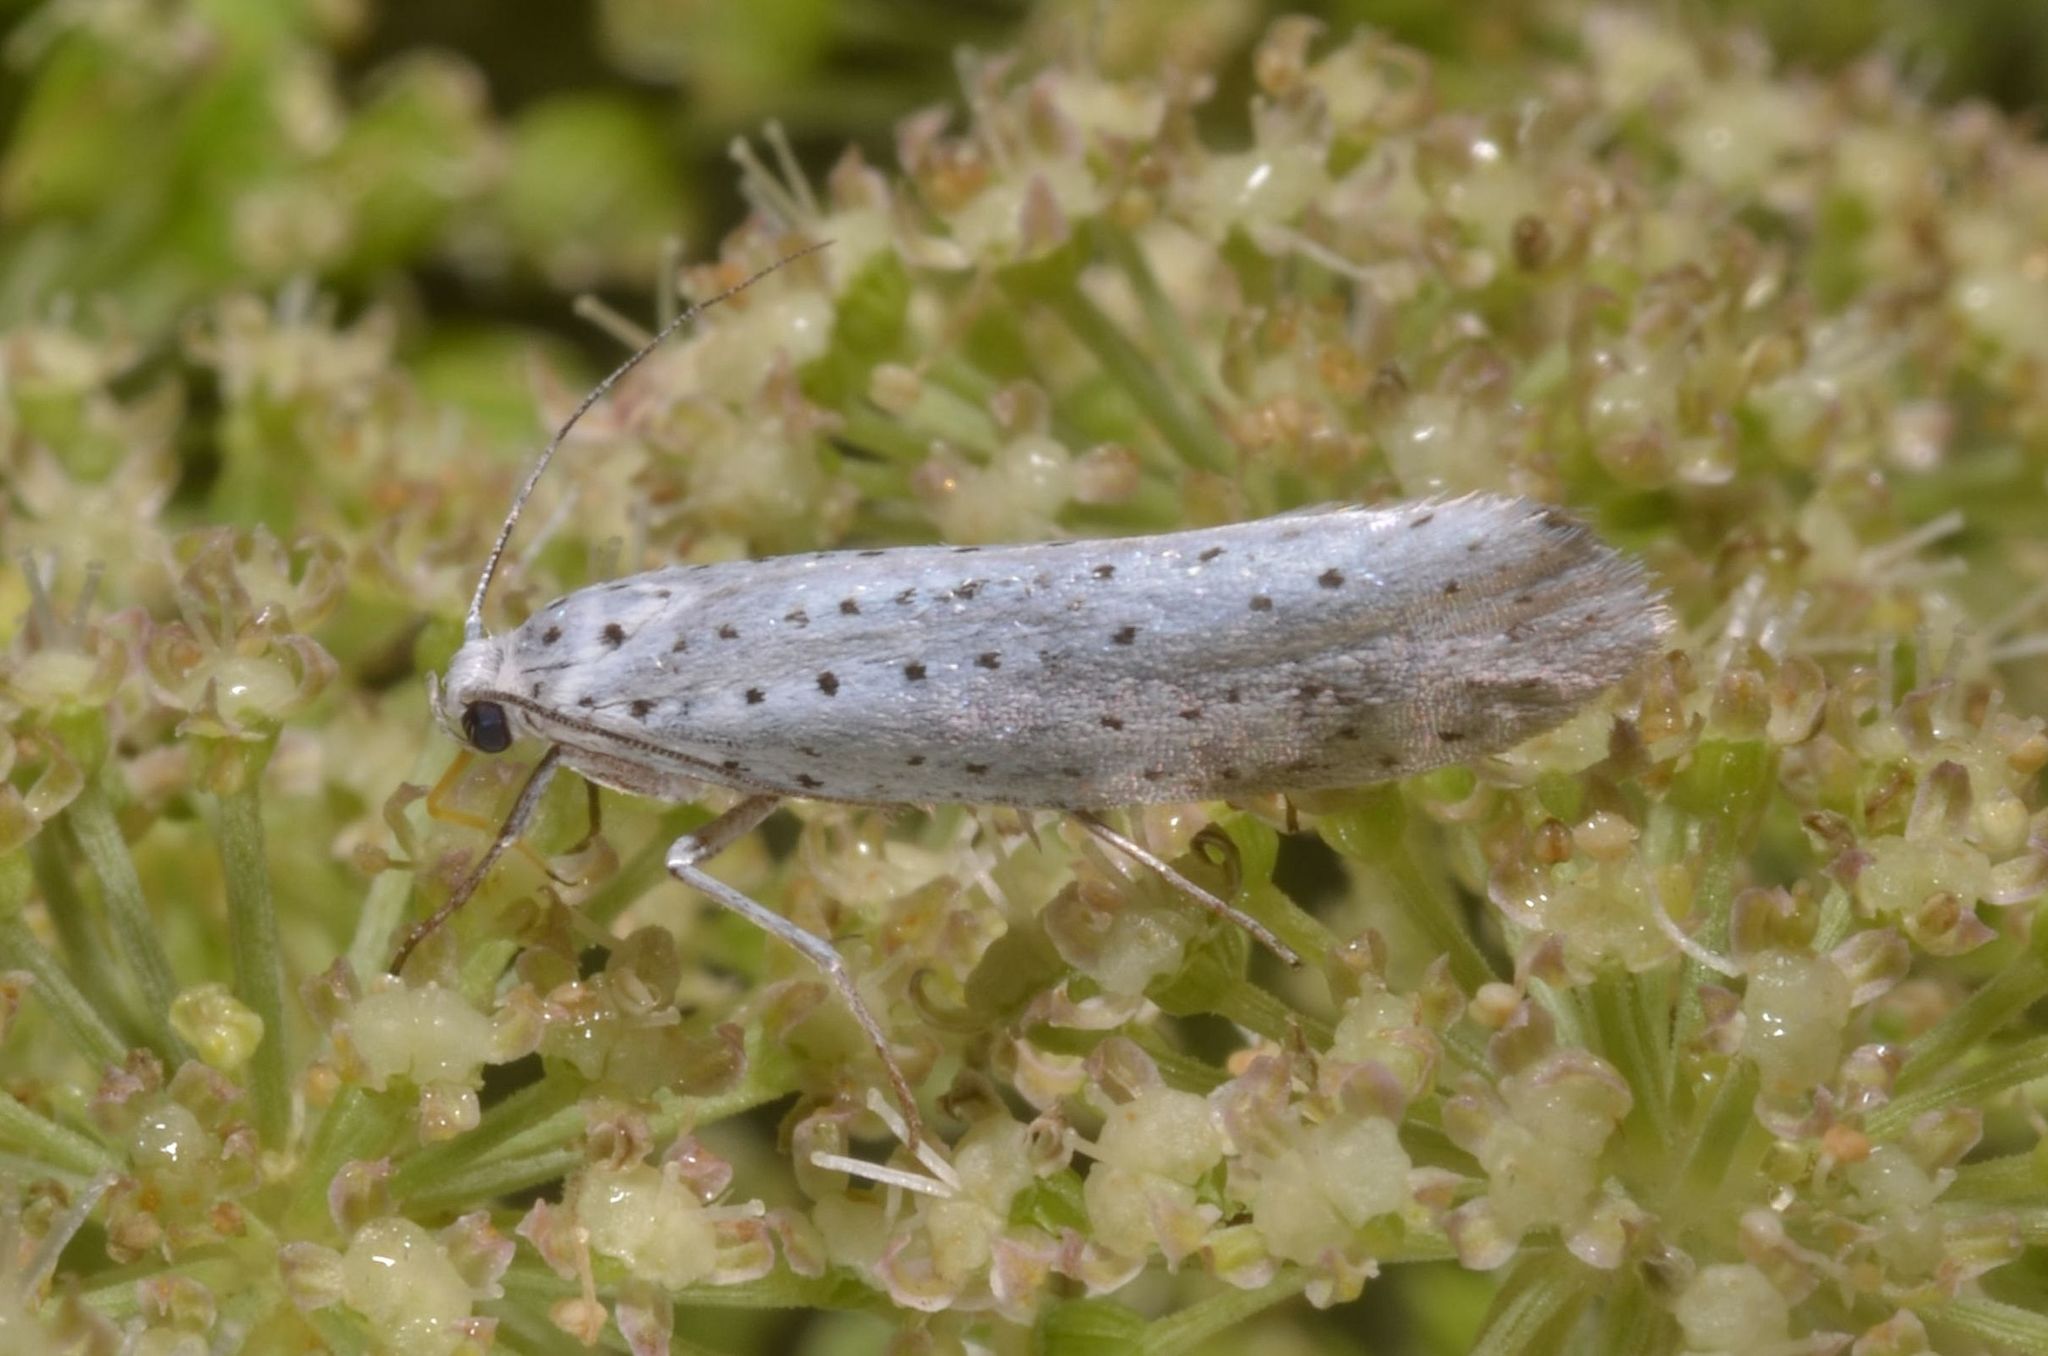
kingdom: Animalia
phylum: Arthropoda
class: Insecta
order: Lepidoptera
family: Yponomeutidae
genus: Yponomeuta
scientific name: Yponomeuta evonymella
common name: Bird-cherry ermine
